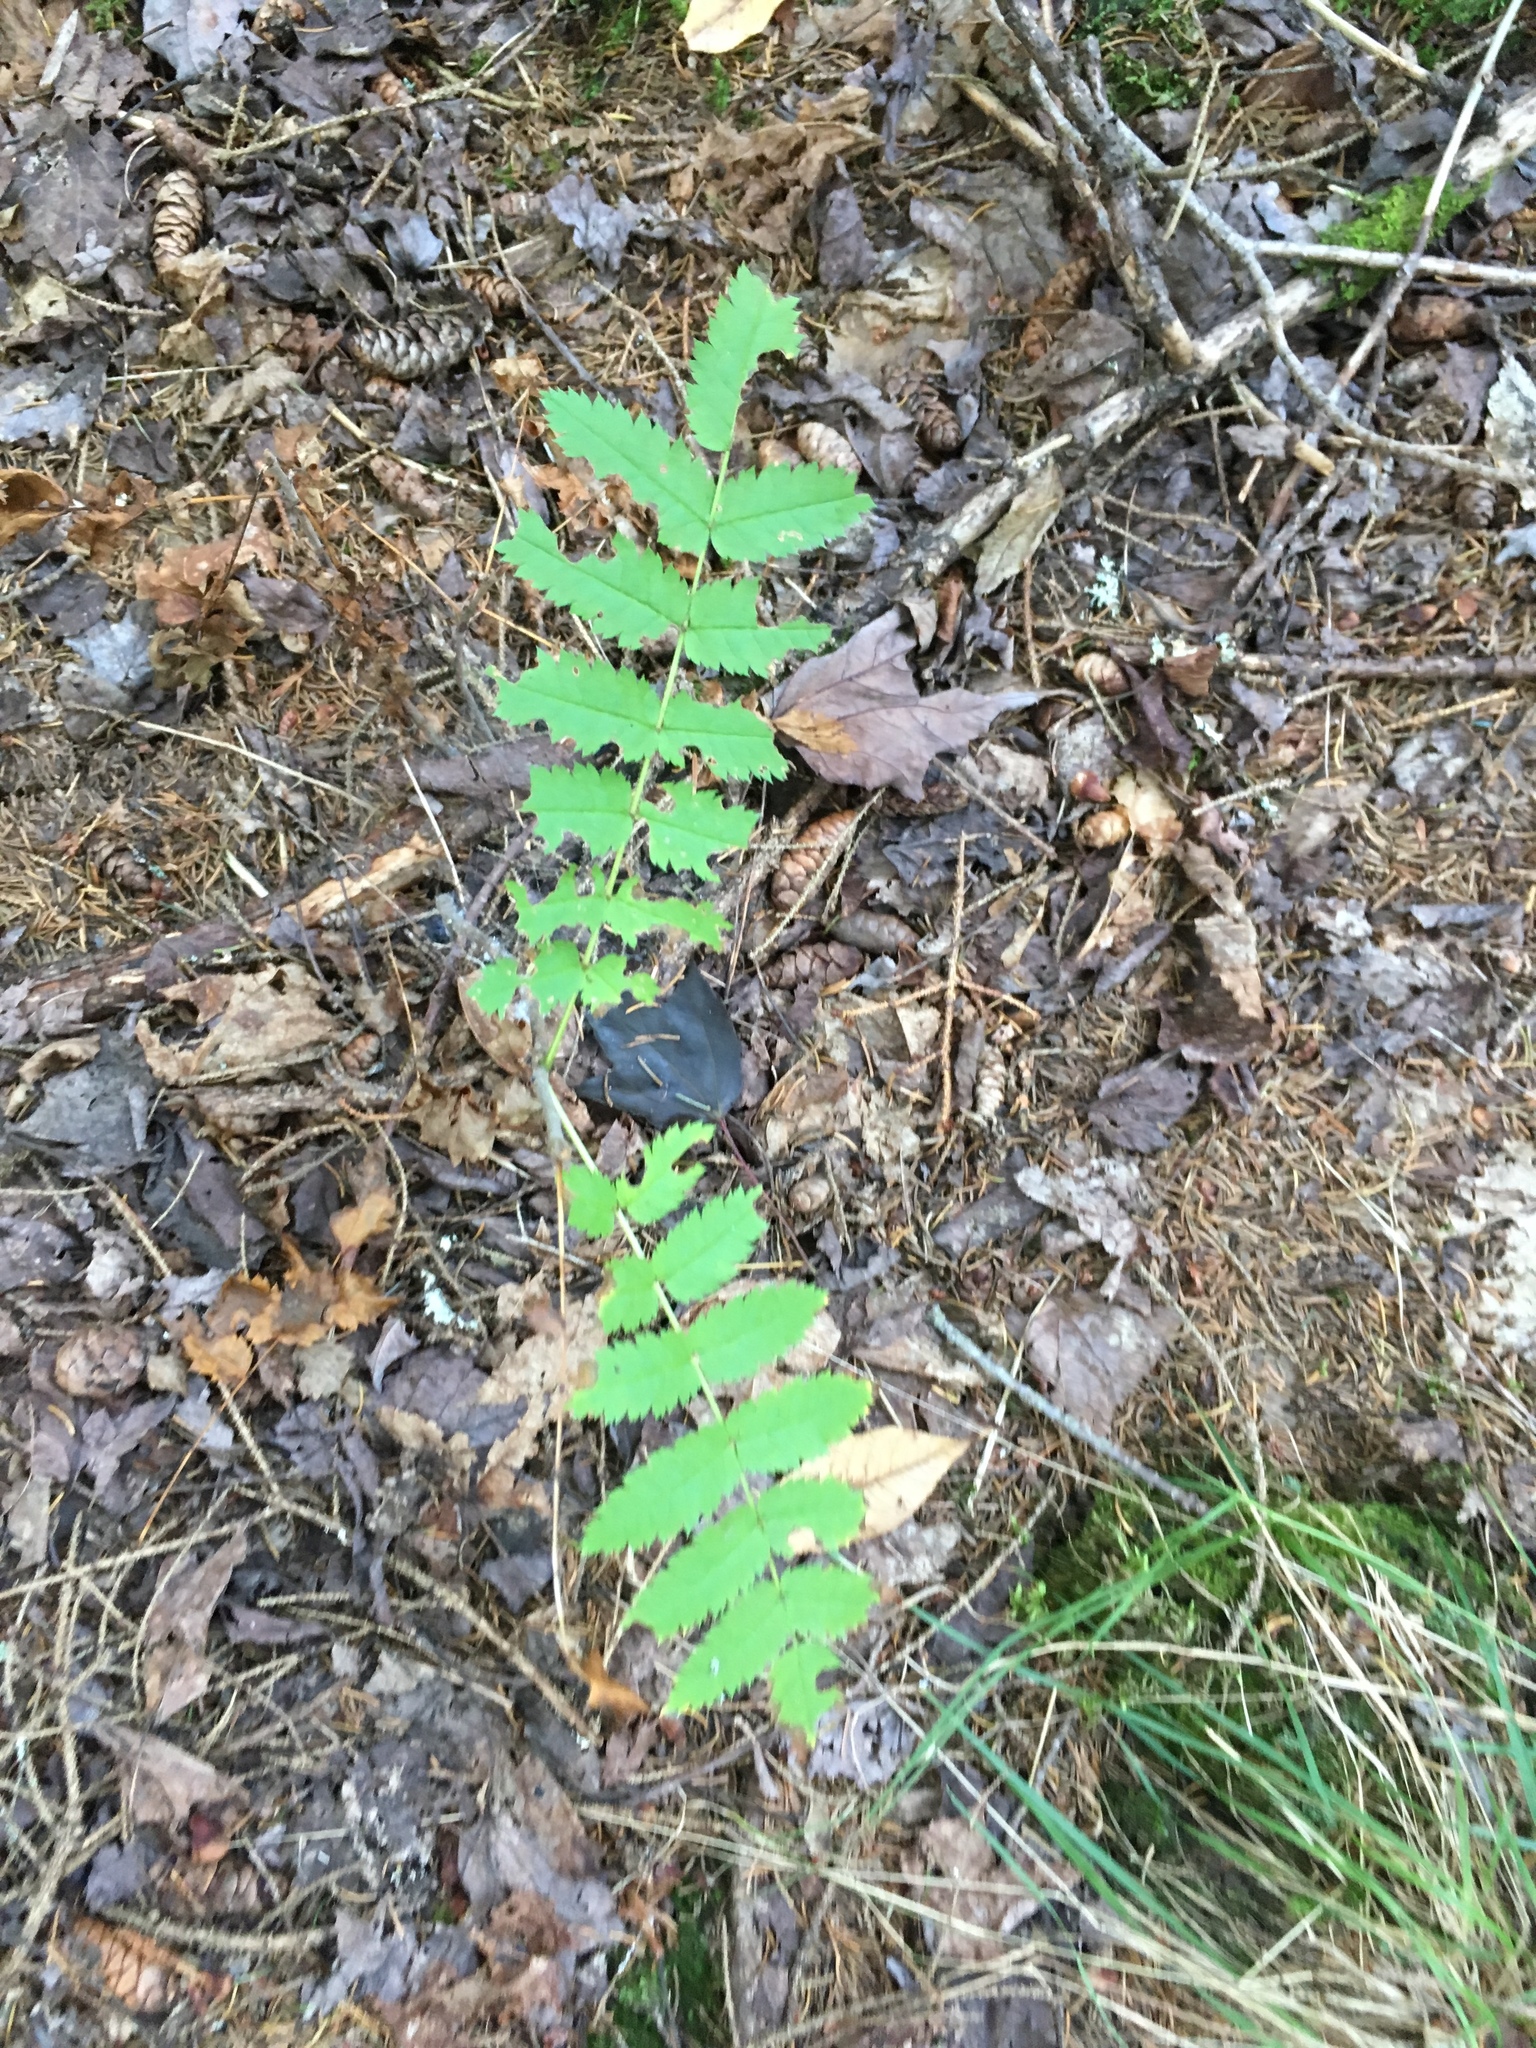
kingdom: Plantae
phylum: Tracheophyta
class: Magnoliopsida
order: Rosales
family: Rosaceae
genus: Sorbus
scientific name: Sorbus americana
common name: American mountain-ash
